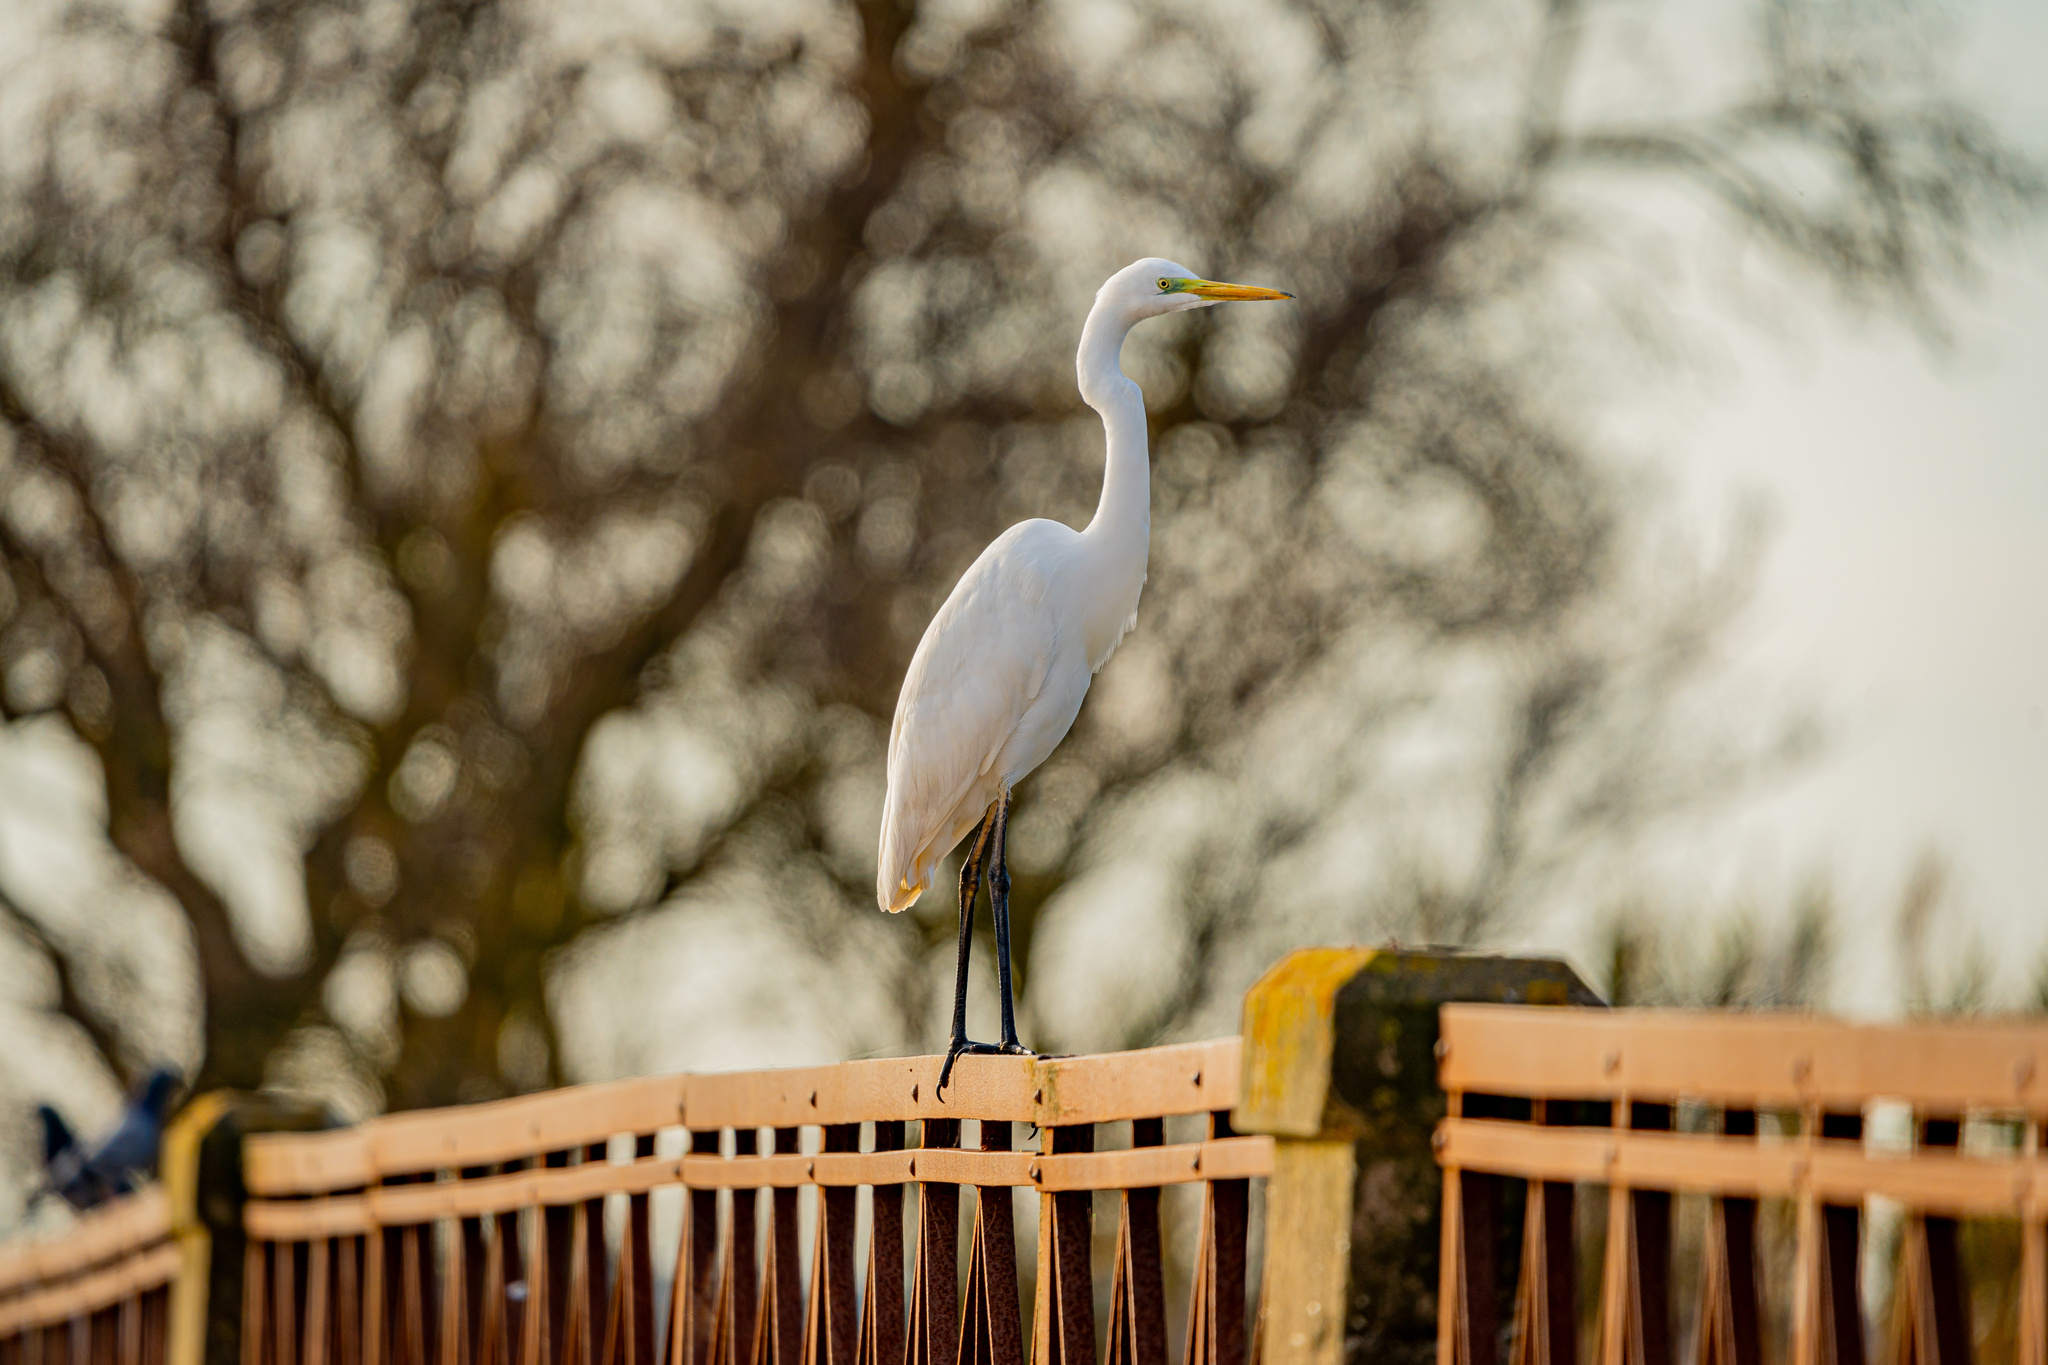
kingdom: Animalia
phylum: Chordata
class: Aves
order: Pelecaniformes
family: Ardeidae
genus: Ardea
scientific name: Ardea alba
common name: Great egret
